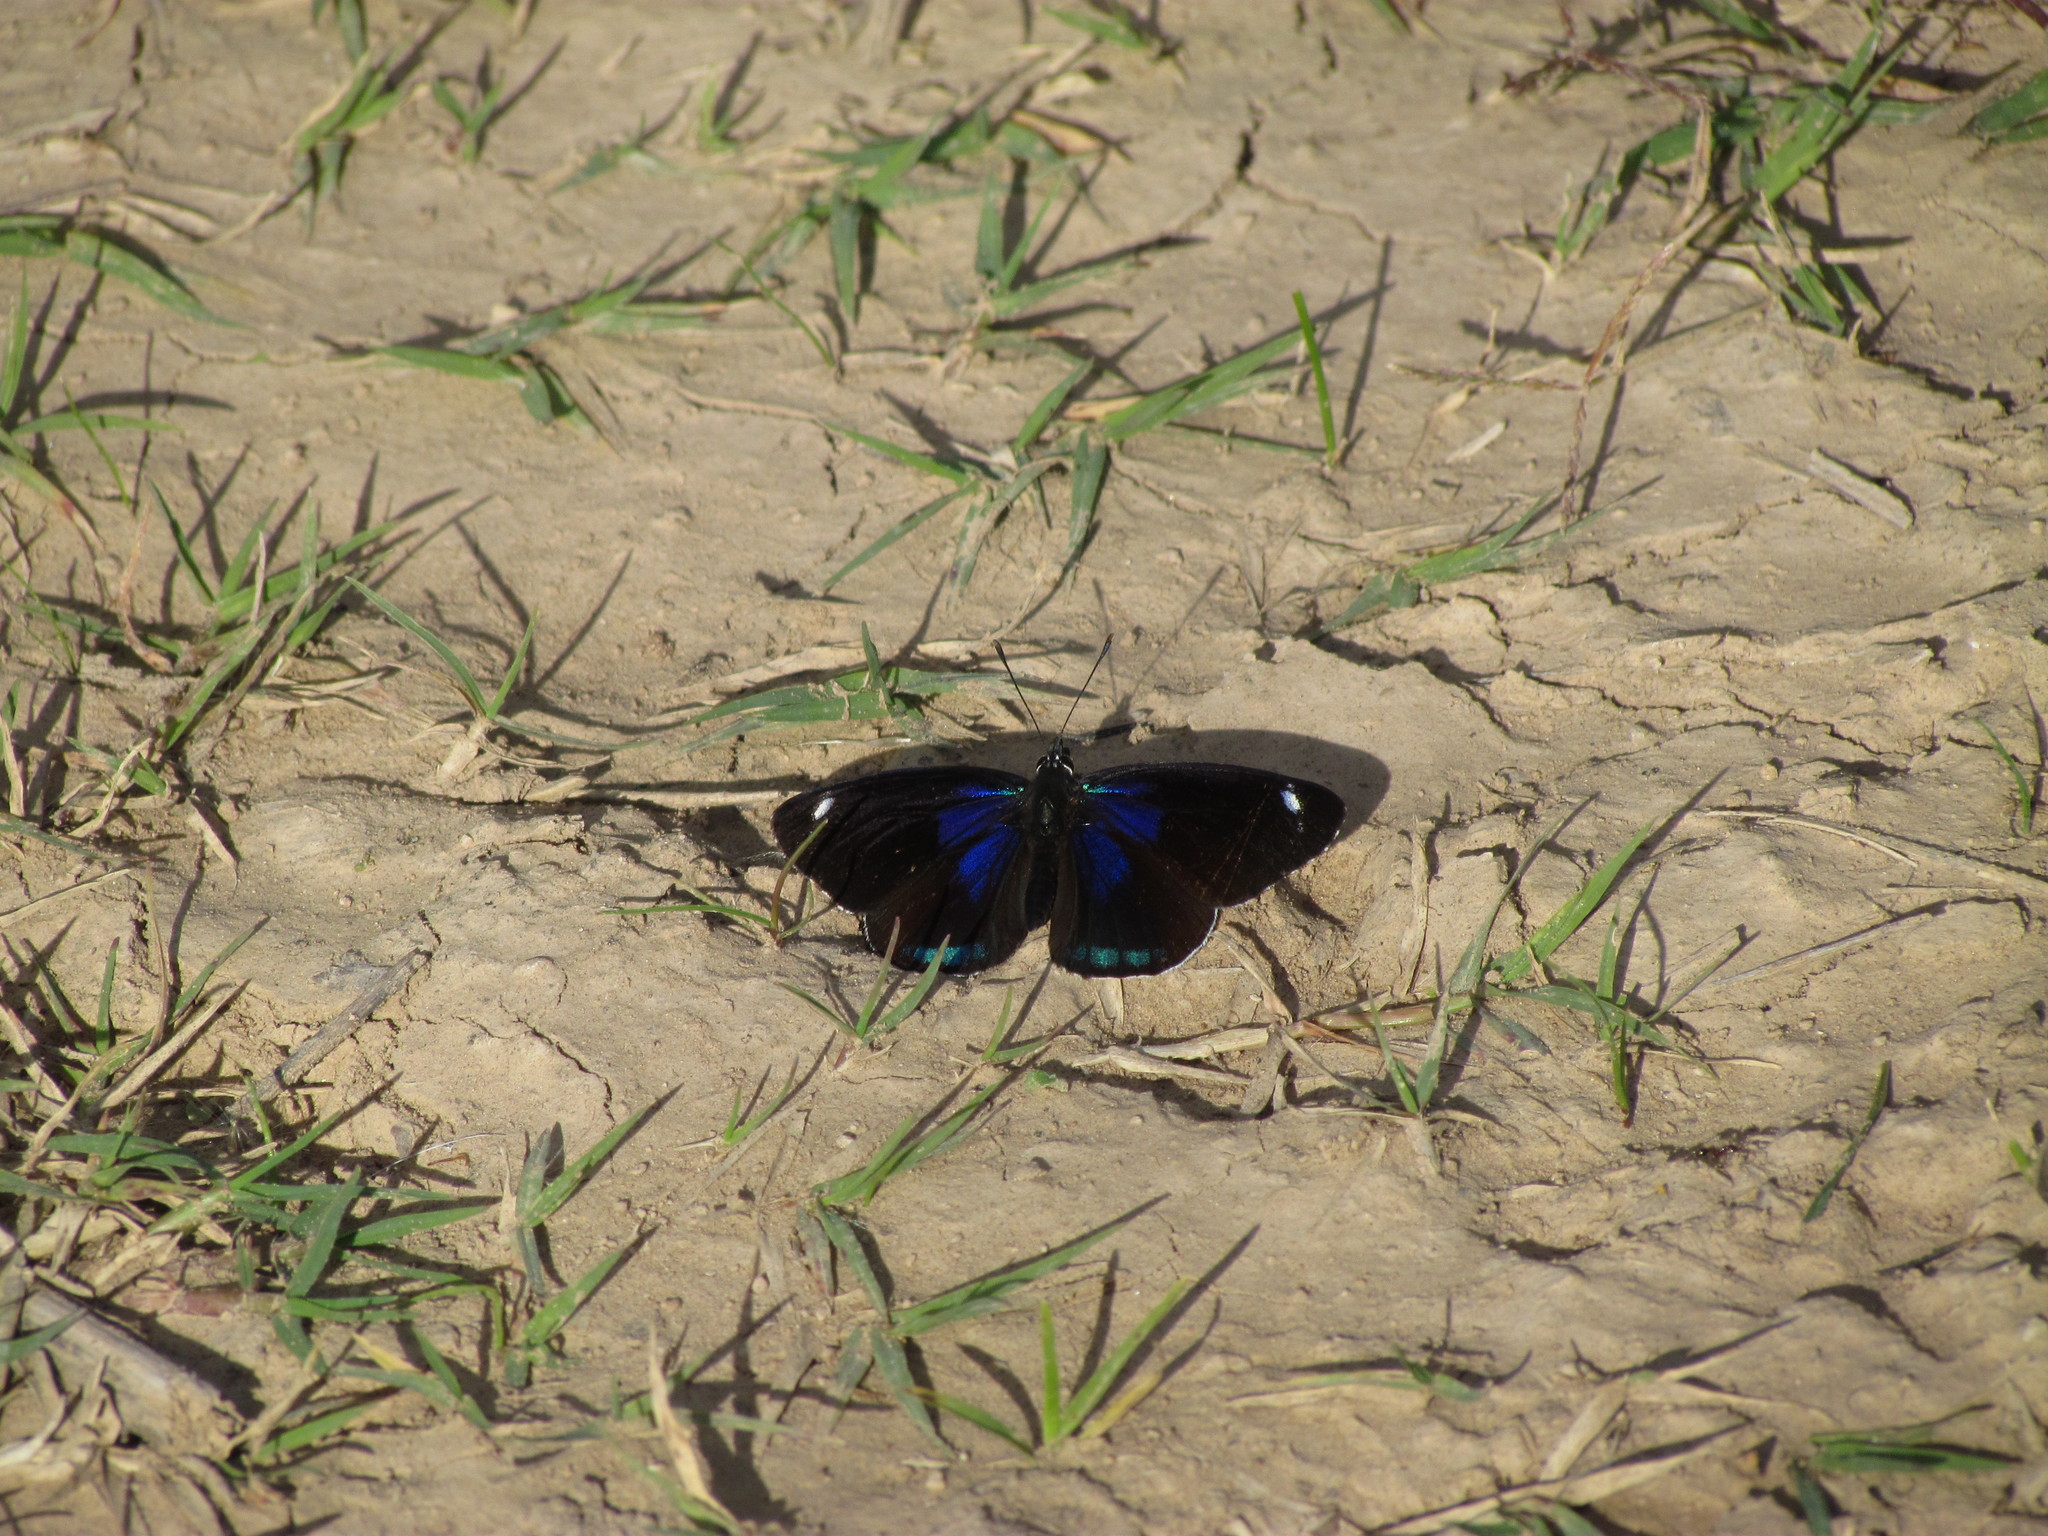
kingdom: Animalia
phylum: Arthropoda
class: Insecta
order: Lepidoptera
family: Nymphalidae
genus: Diaethria
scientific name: Diaethria candrena
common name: Number eighty
